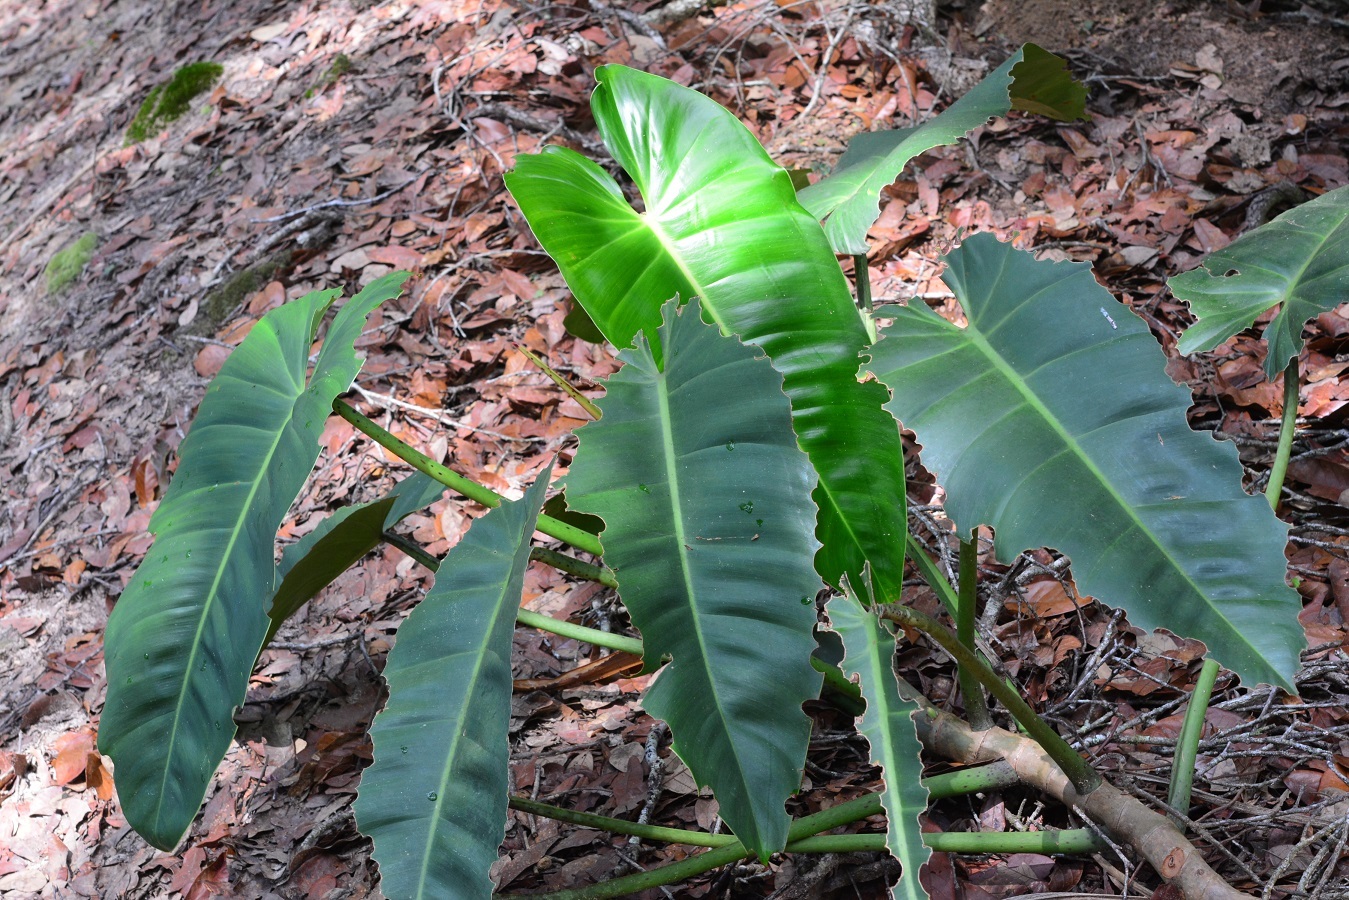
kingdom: Plantae
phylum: Tracheophyta
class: Liliopsida
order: Alismatales
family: Araceae
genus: Philodendron
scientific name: Philodendron sagittifolium
